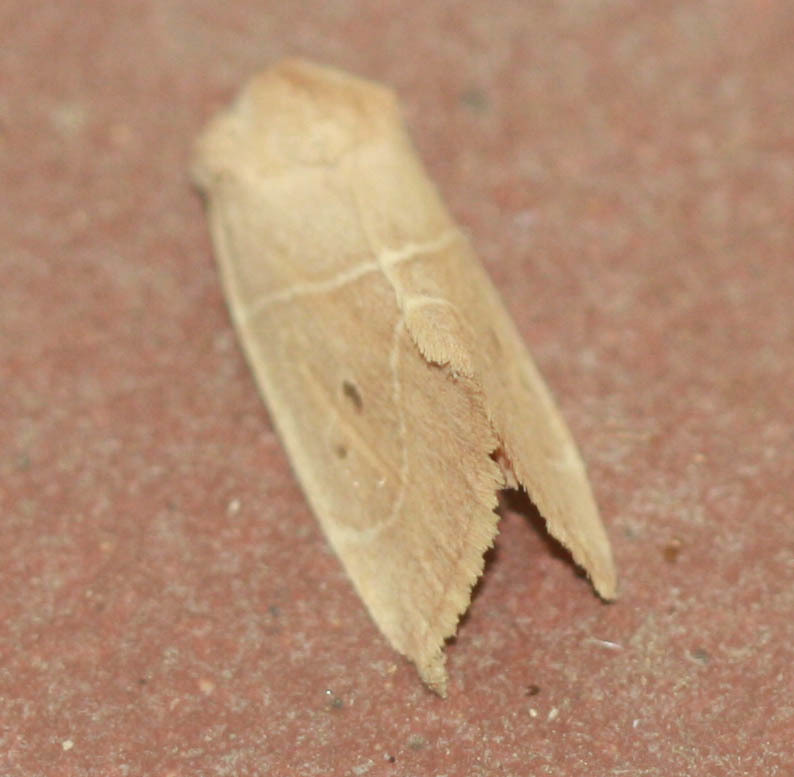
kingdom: Animalia
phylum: Arthropoda
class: Insecta
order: Lepidoptera
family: Noctuidae
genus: Cosmia
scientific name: Cosmia calami
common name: American dun-bar moth
